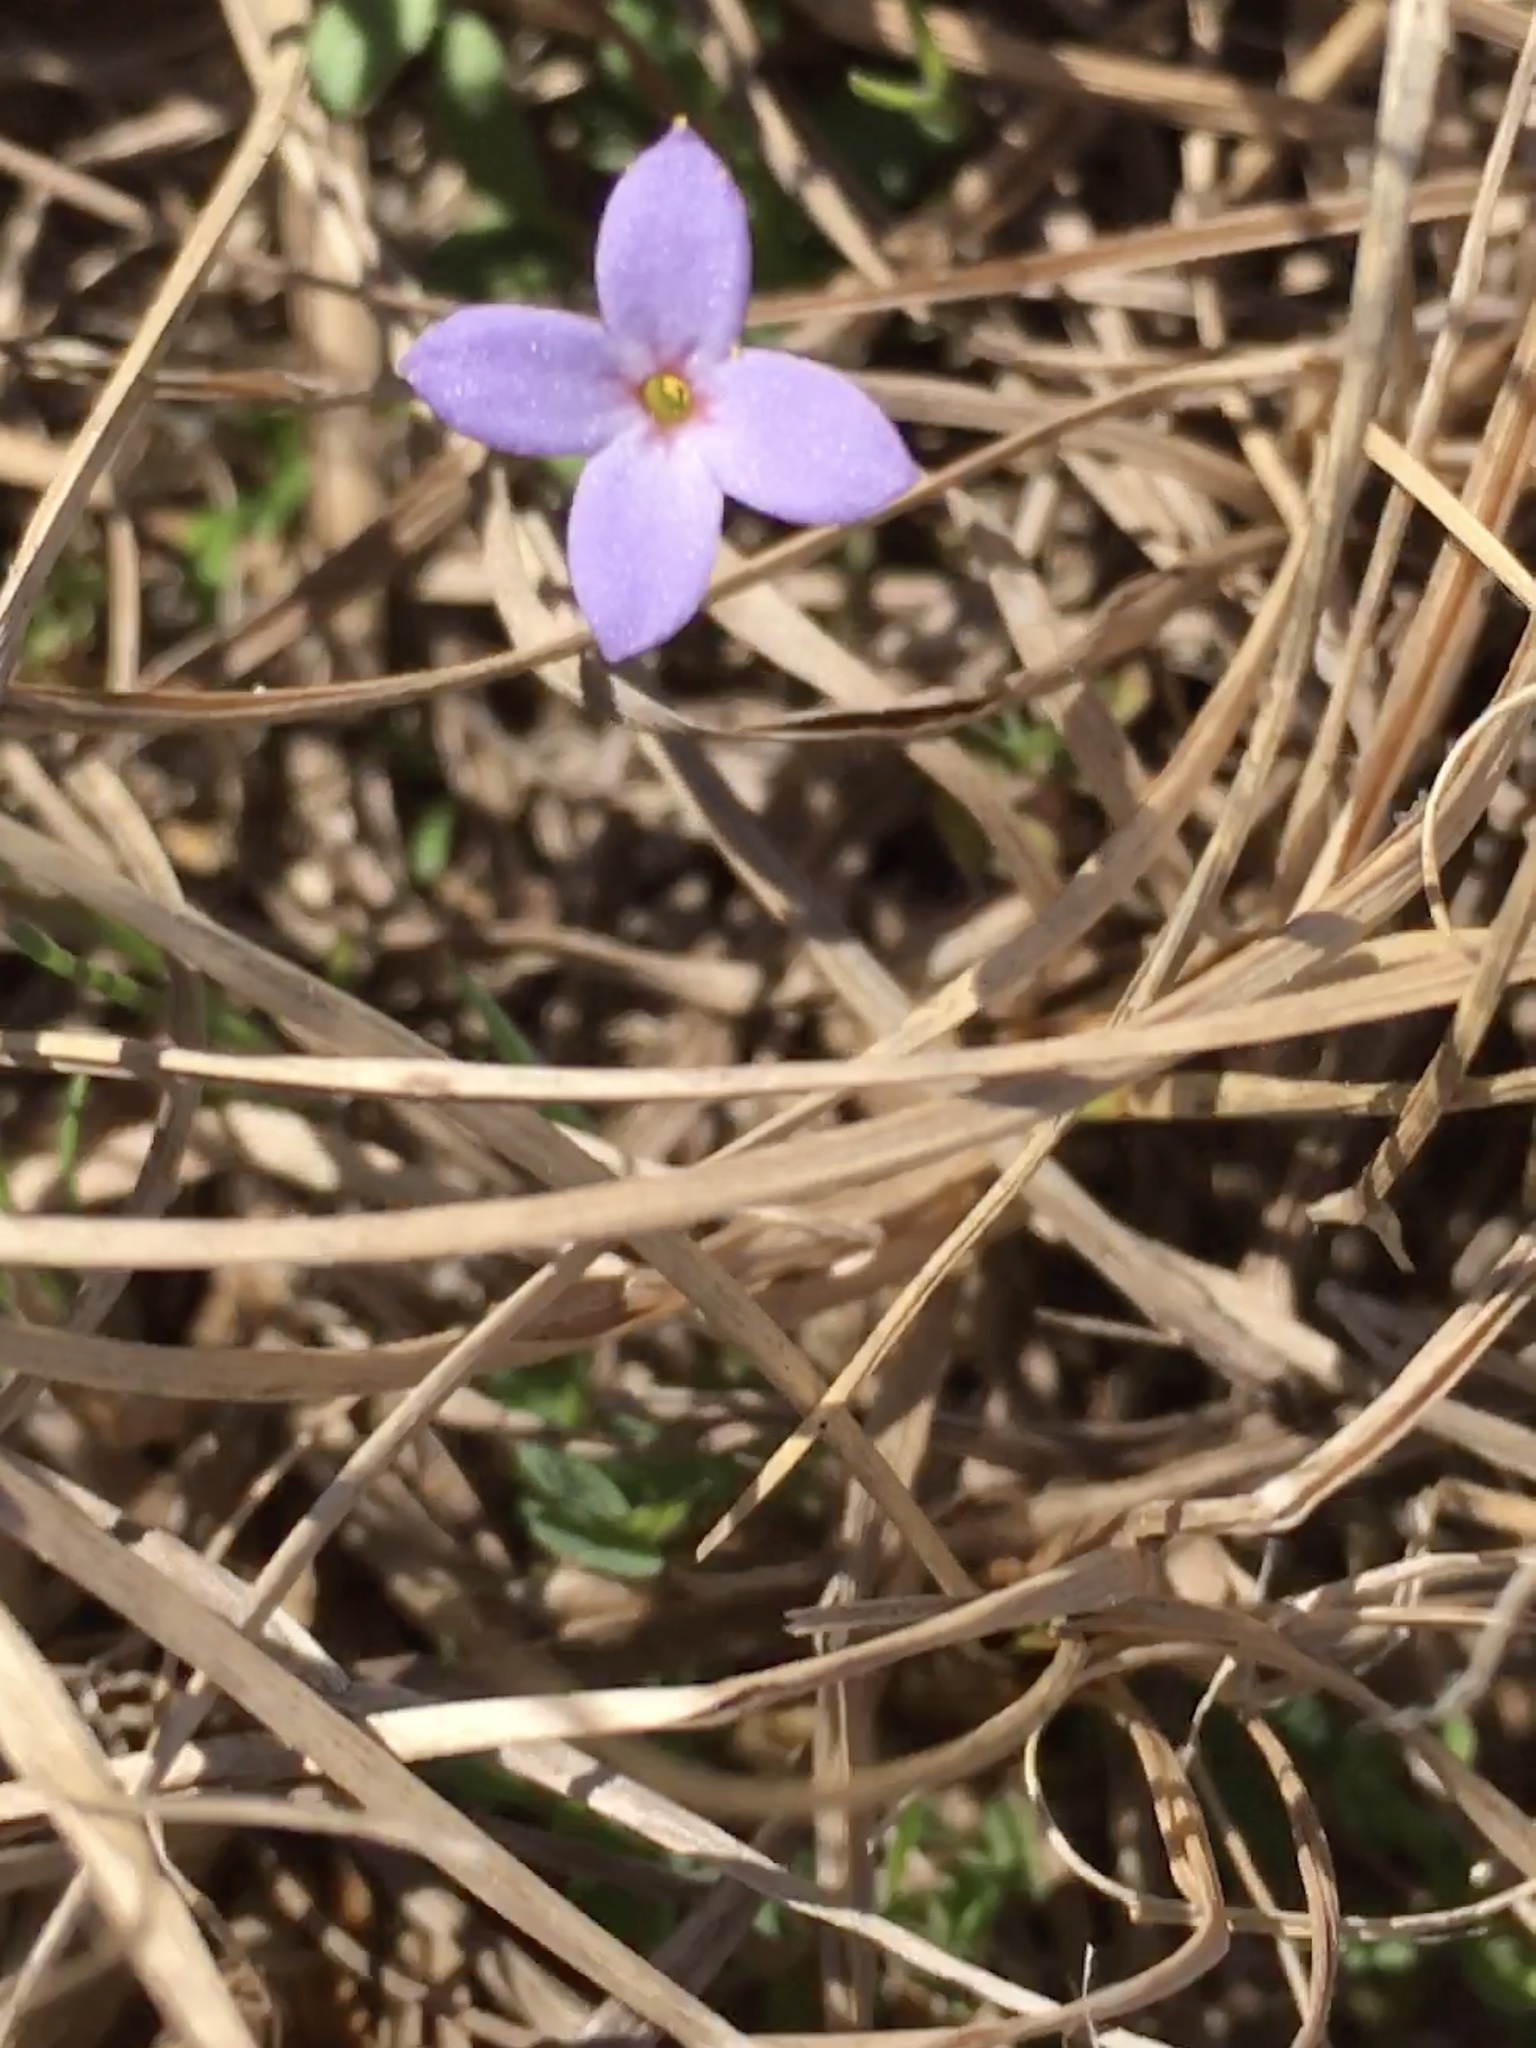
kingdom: Plantae
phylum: Tracheophyta
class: Magnoliopsida
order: Gentianales
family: Rubiaceae
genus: Houstonia
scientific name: Houstonia pusilla
